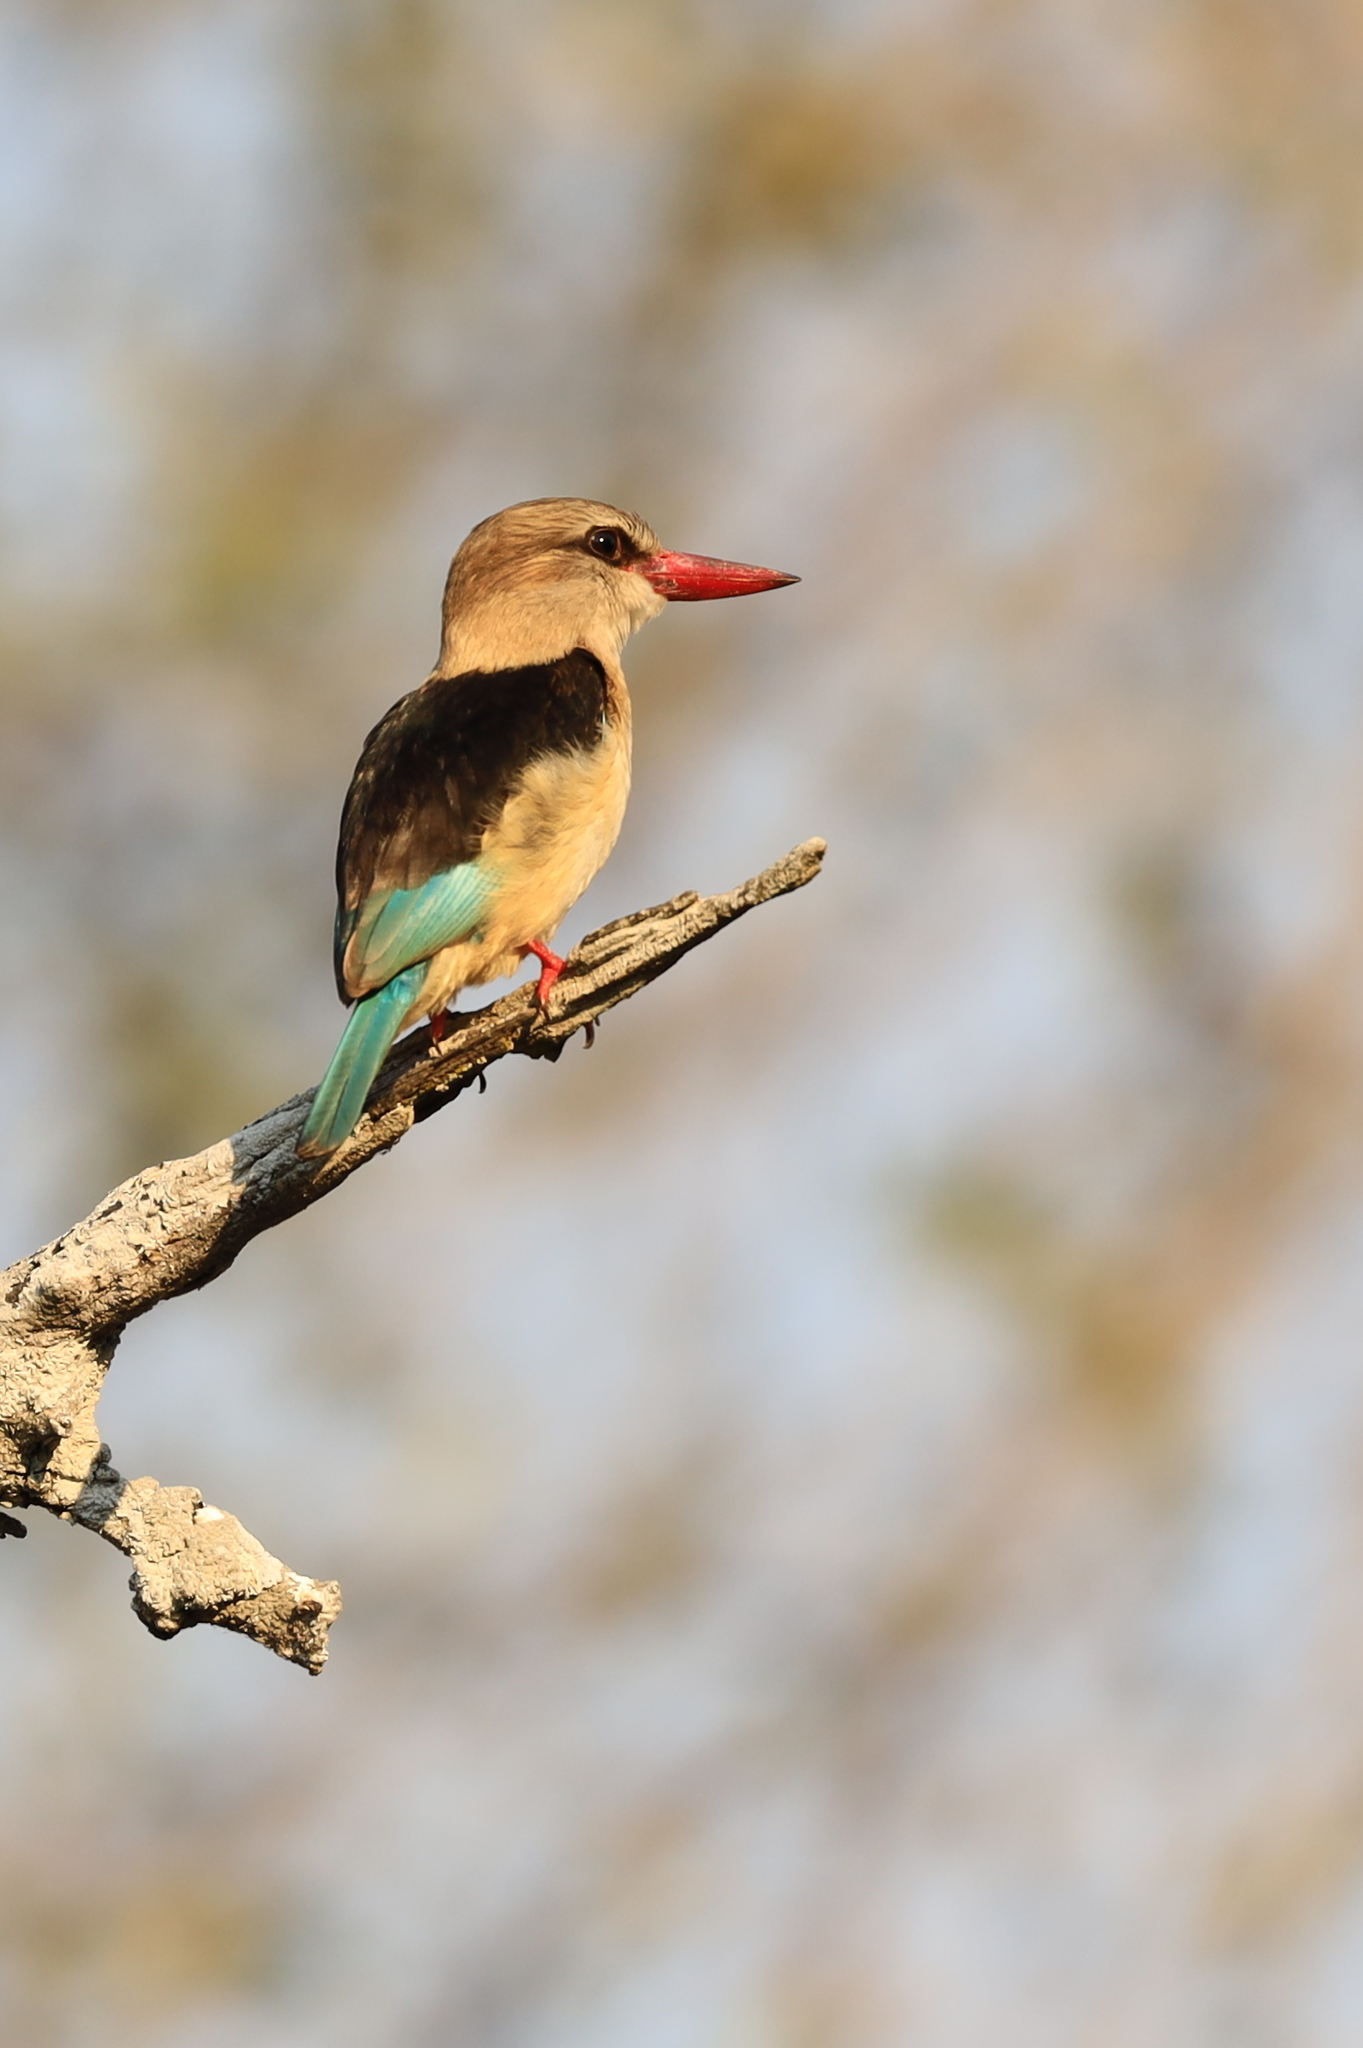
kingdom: Animalia
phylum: Chordata
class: Aves
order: Coraciiformes
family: Alcedinidae
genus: Halcyon
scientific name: Halcyon albiventris
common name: Brown-hooded kingfisher
